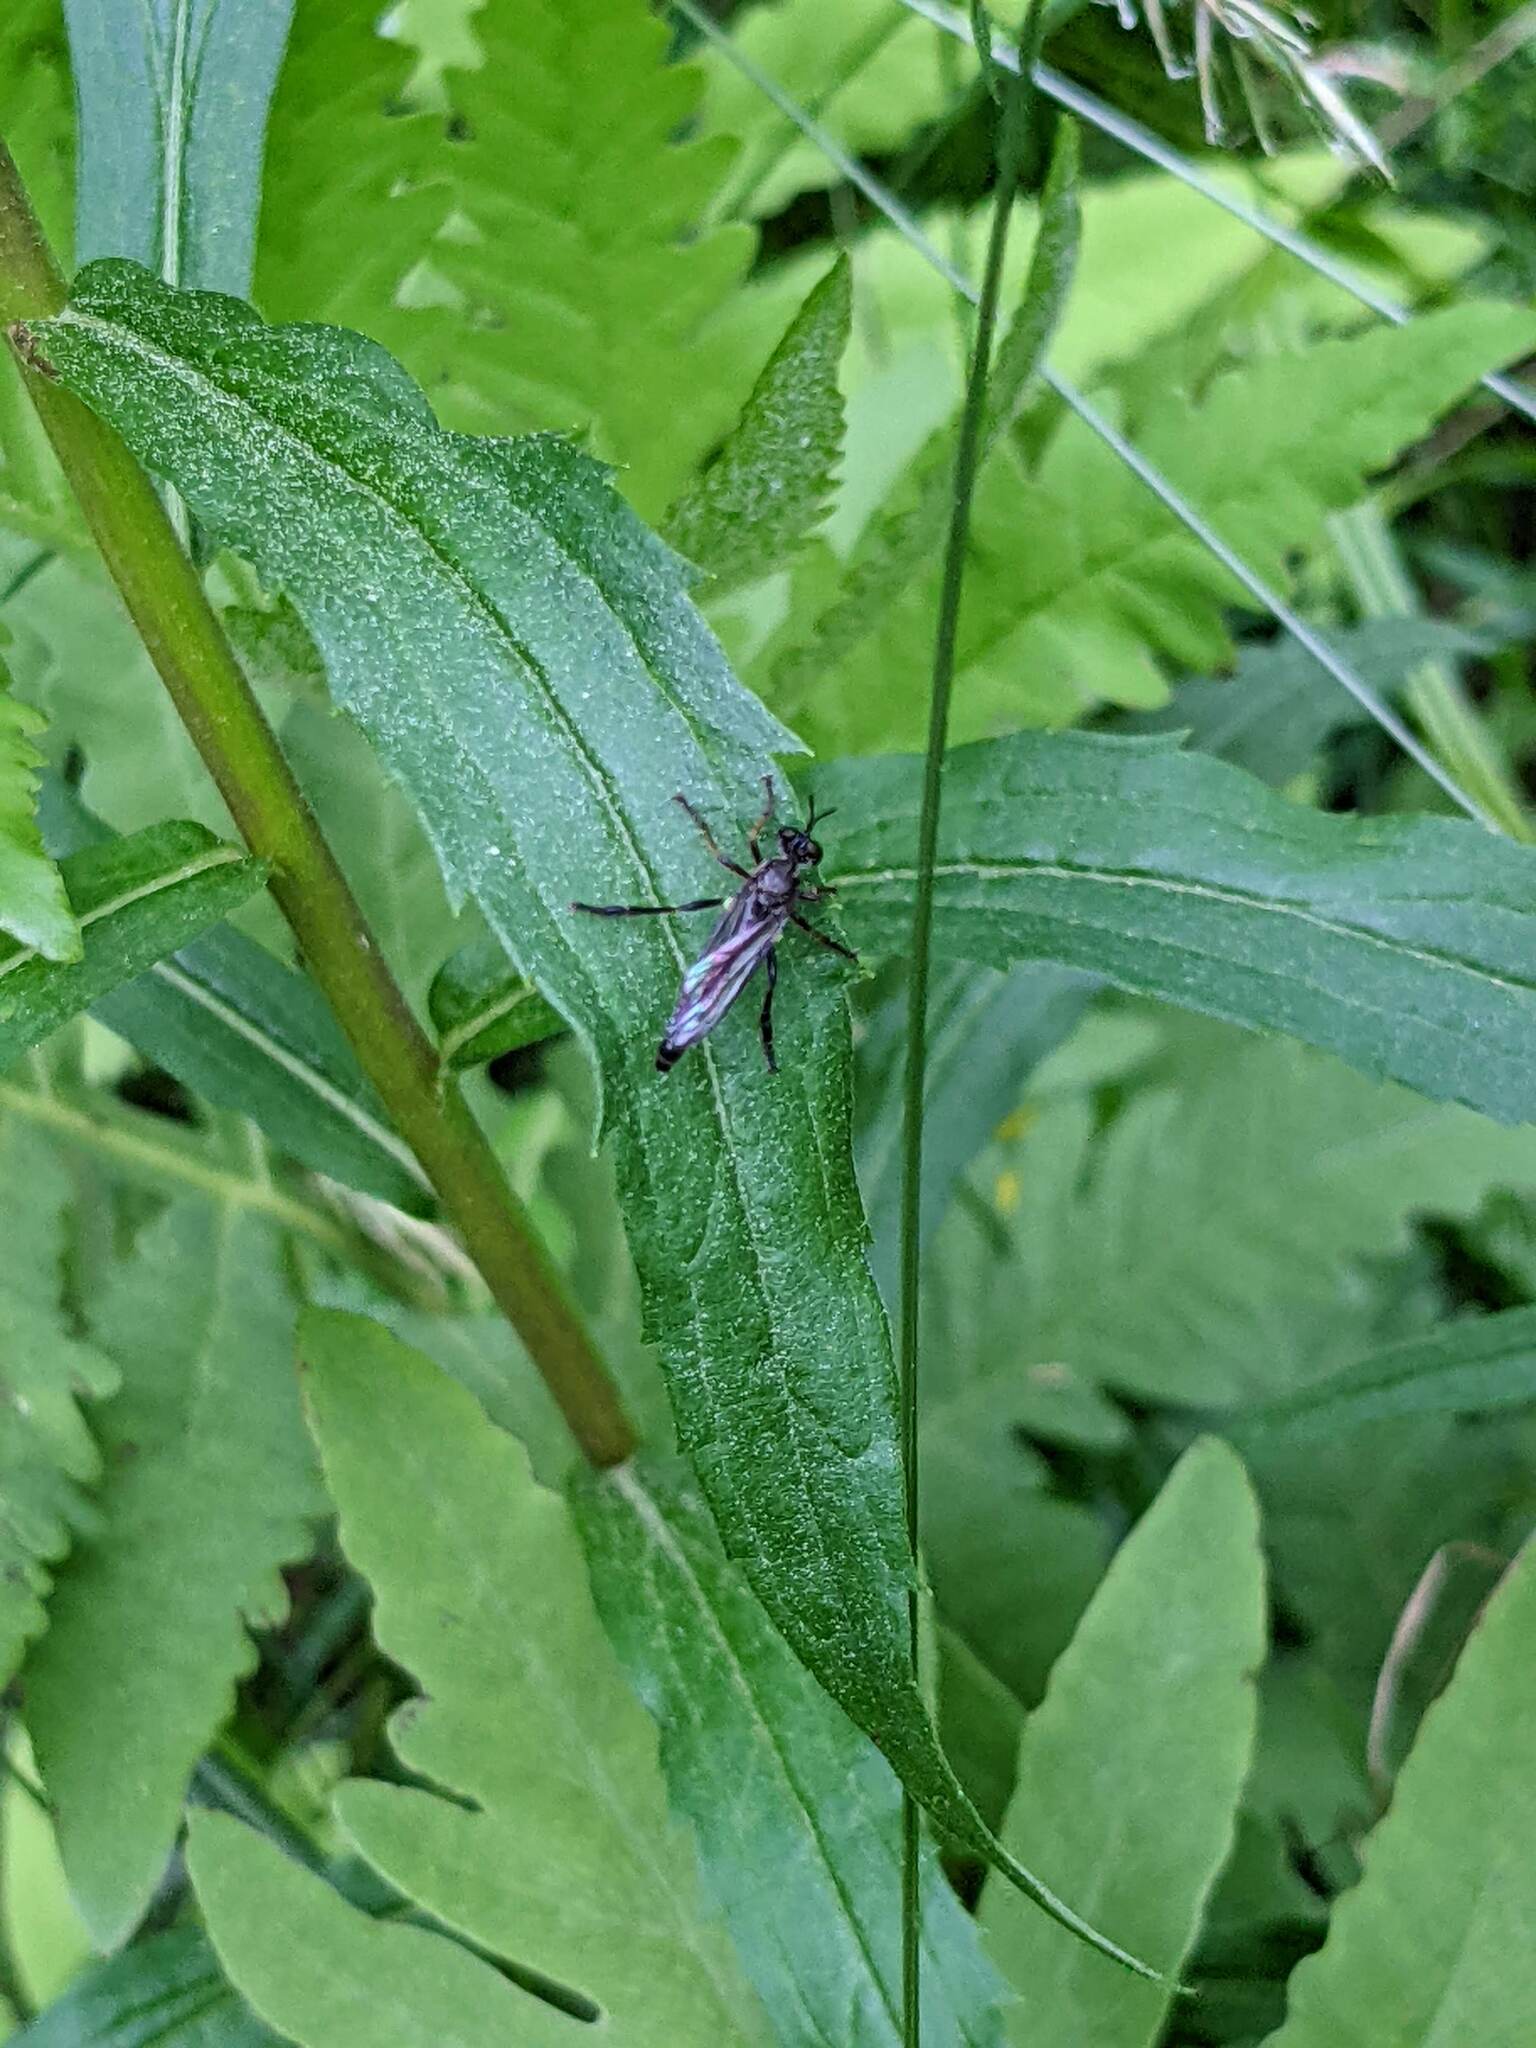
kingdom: Animalia
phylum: Arthropoda
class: Insecta
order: Diptera
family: Asilidae
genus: Dioctria
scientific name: Dioctria hyalipennis
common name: Stripe-legged robberfly
